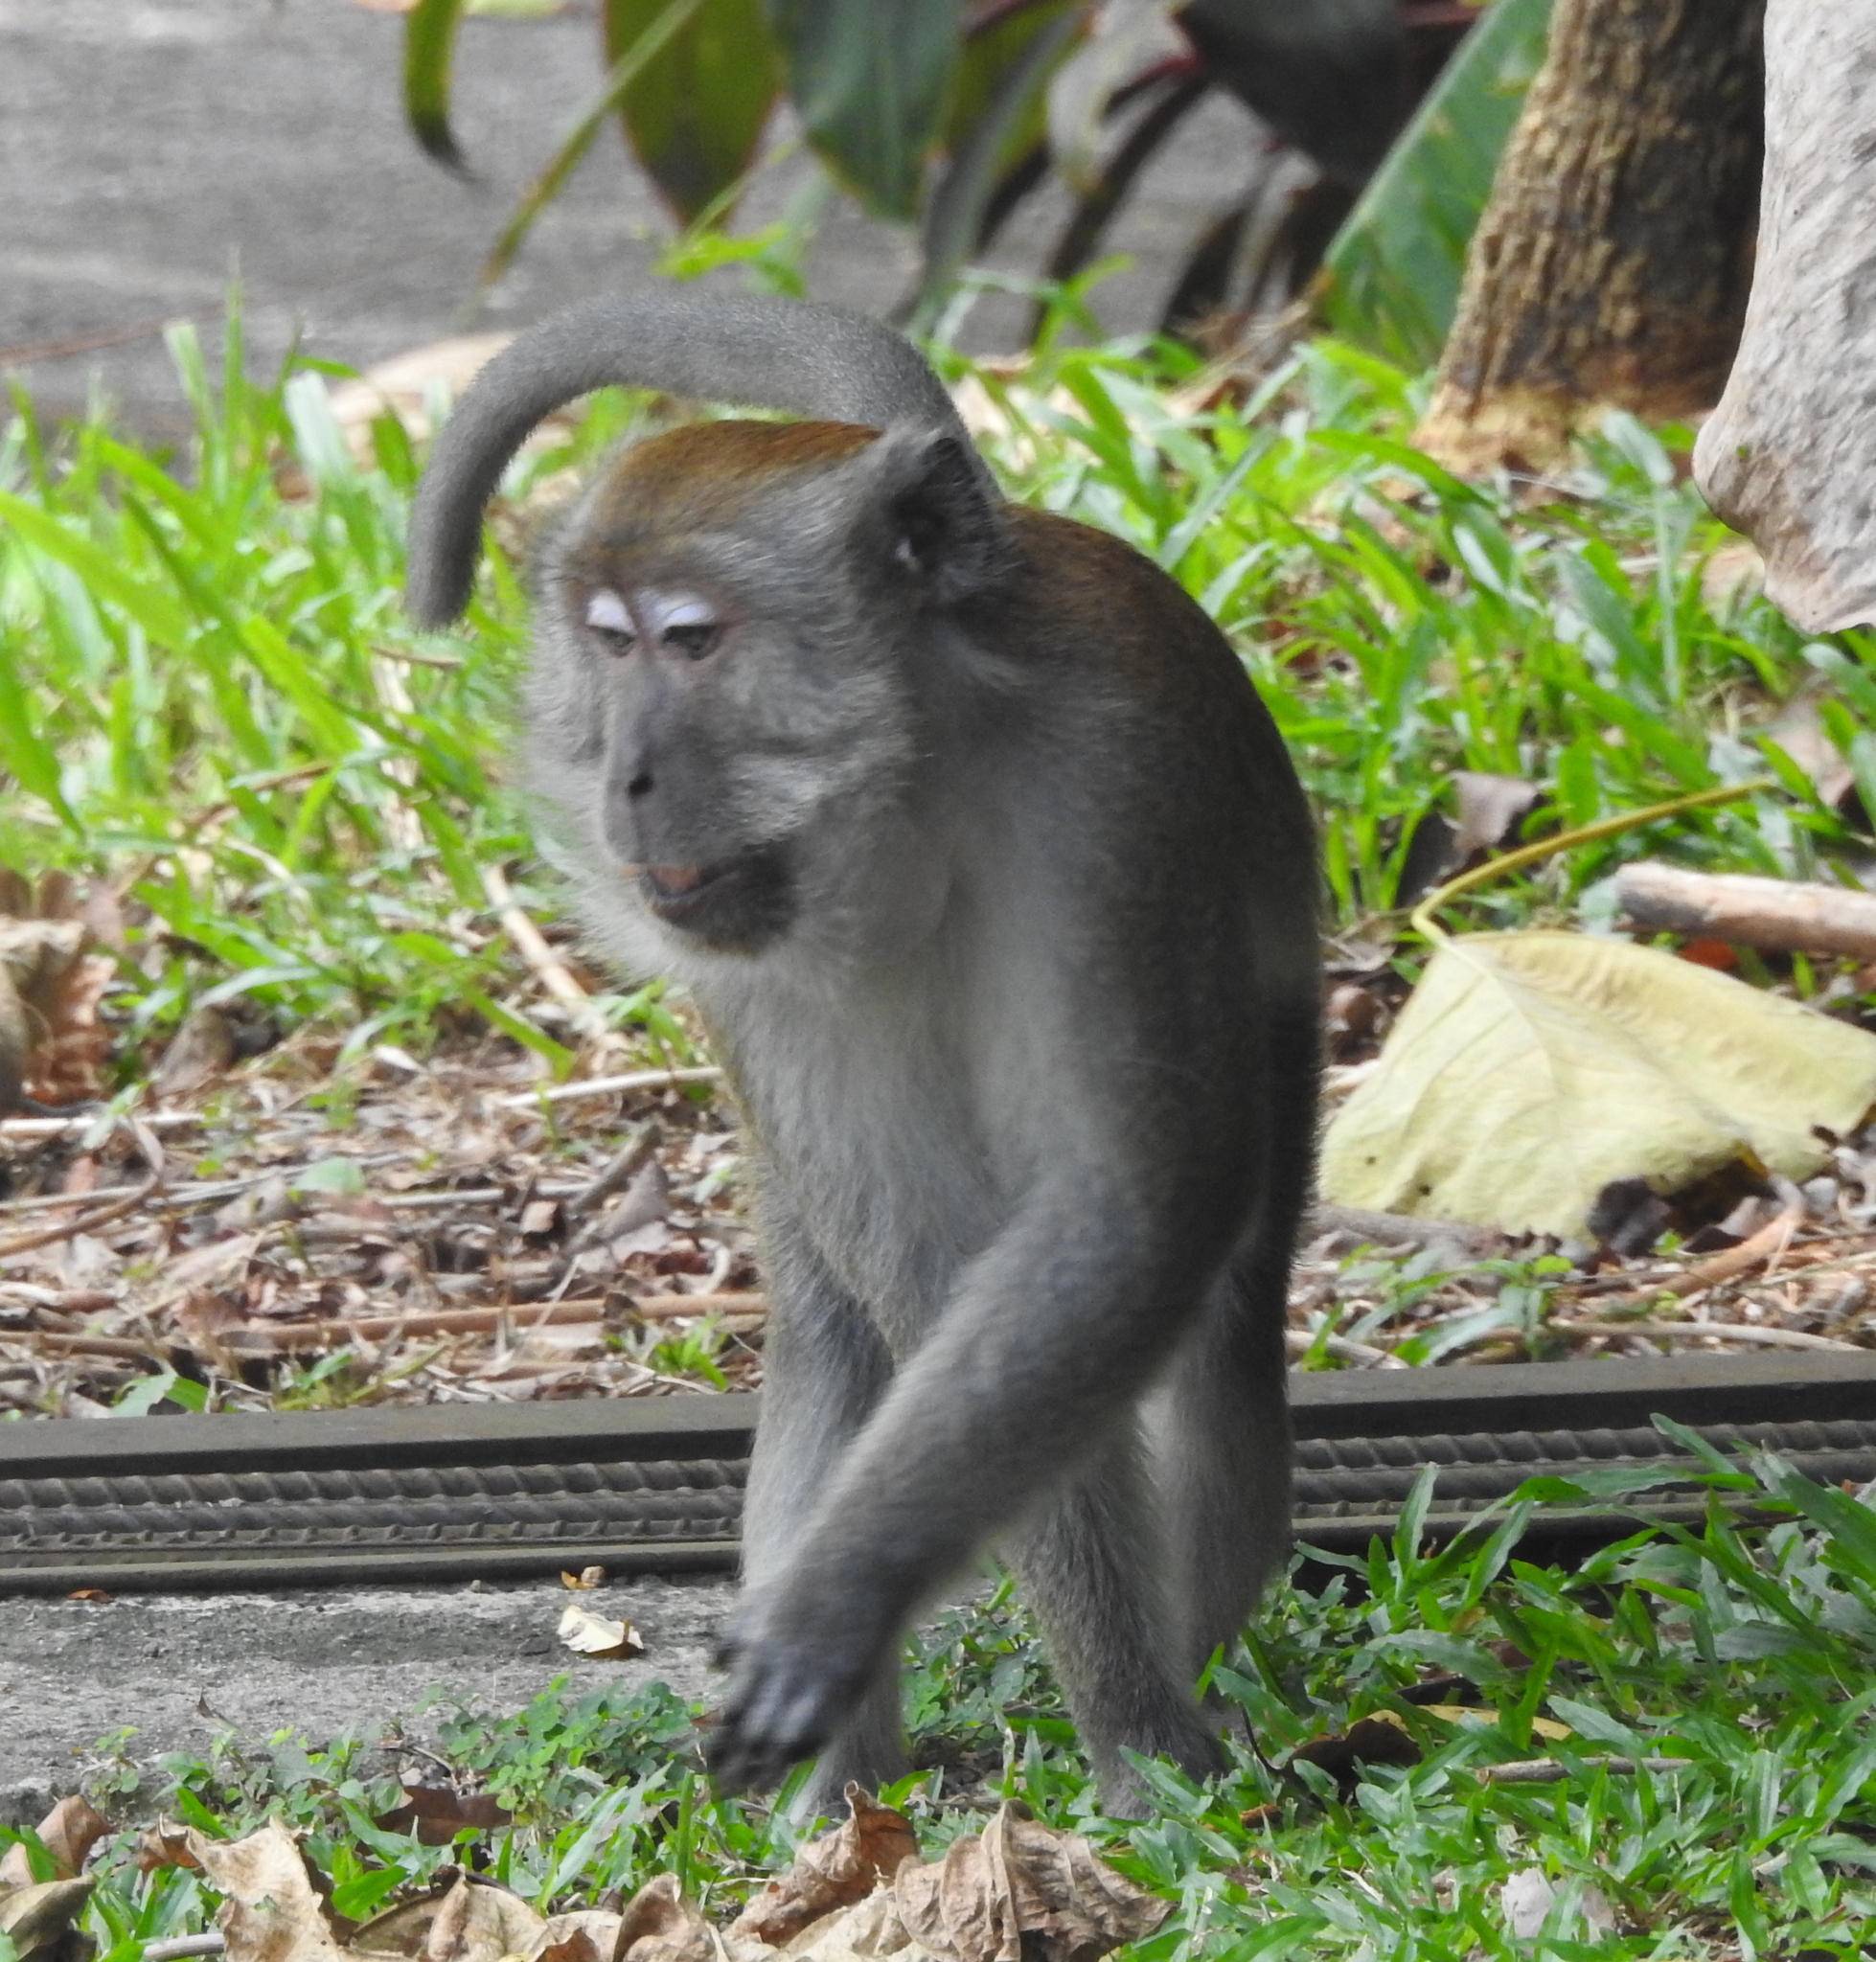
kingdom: Animalia
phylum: Chordata
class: Mammalia
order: Primates
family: Cercopithecidae
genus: Macaca
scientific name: Macaca fascicularis
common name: Crab-eating macaque
